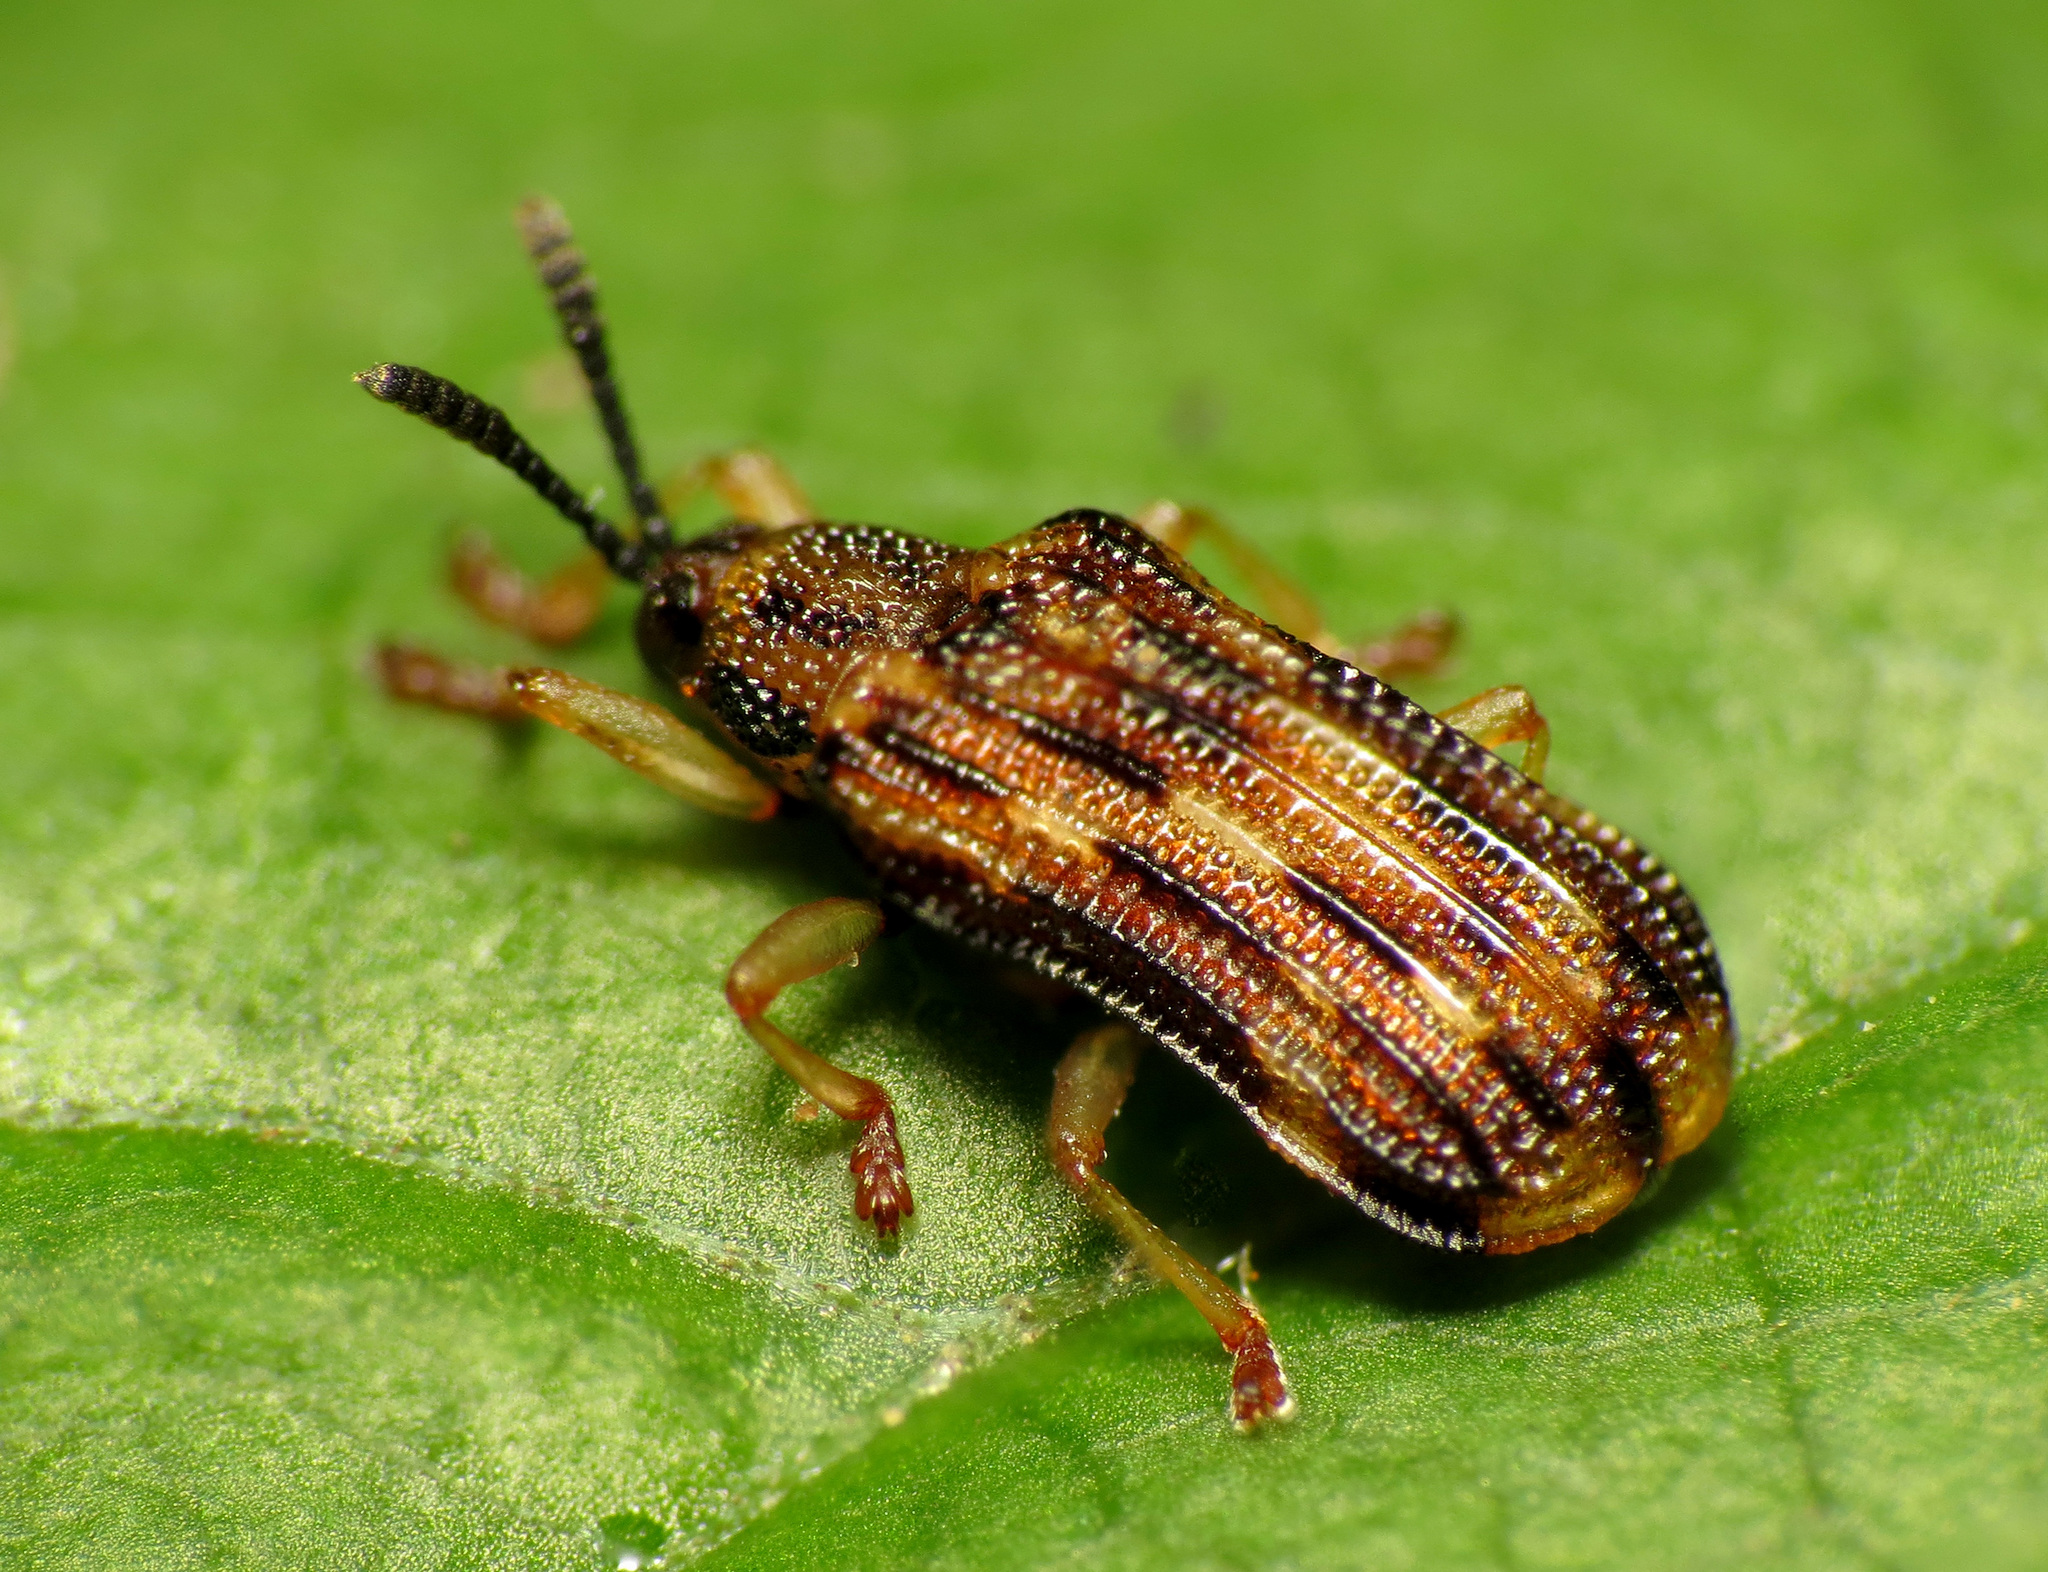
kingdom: Animalia
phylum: Arthropoda
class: Insecta
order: Coleoptera
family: Chrysomelidae
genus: Sumitrosis
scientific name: Sumitrosis inaequalis
